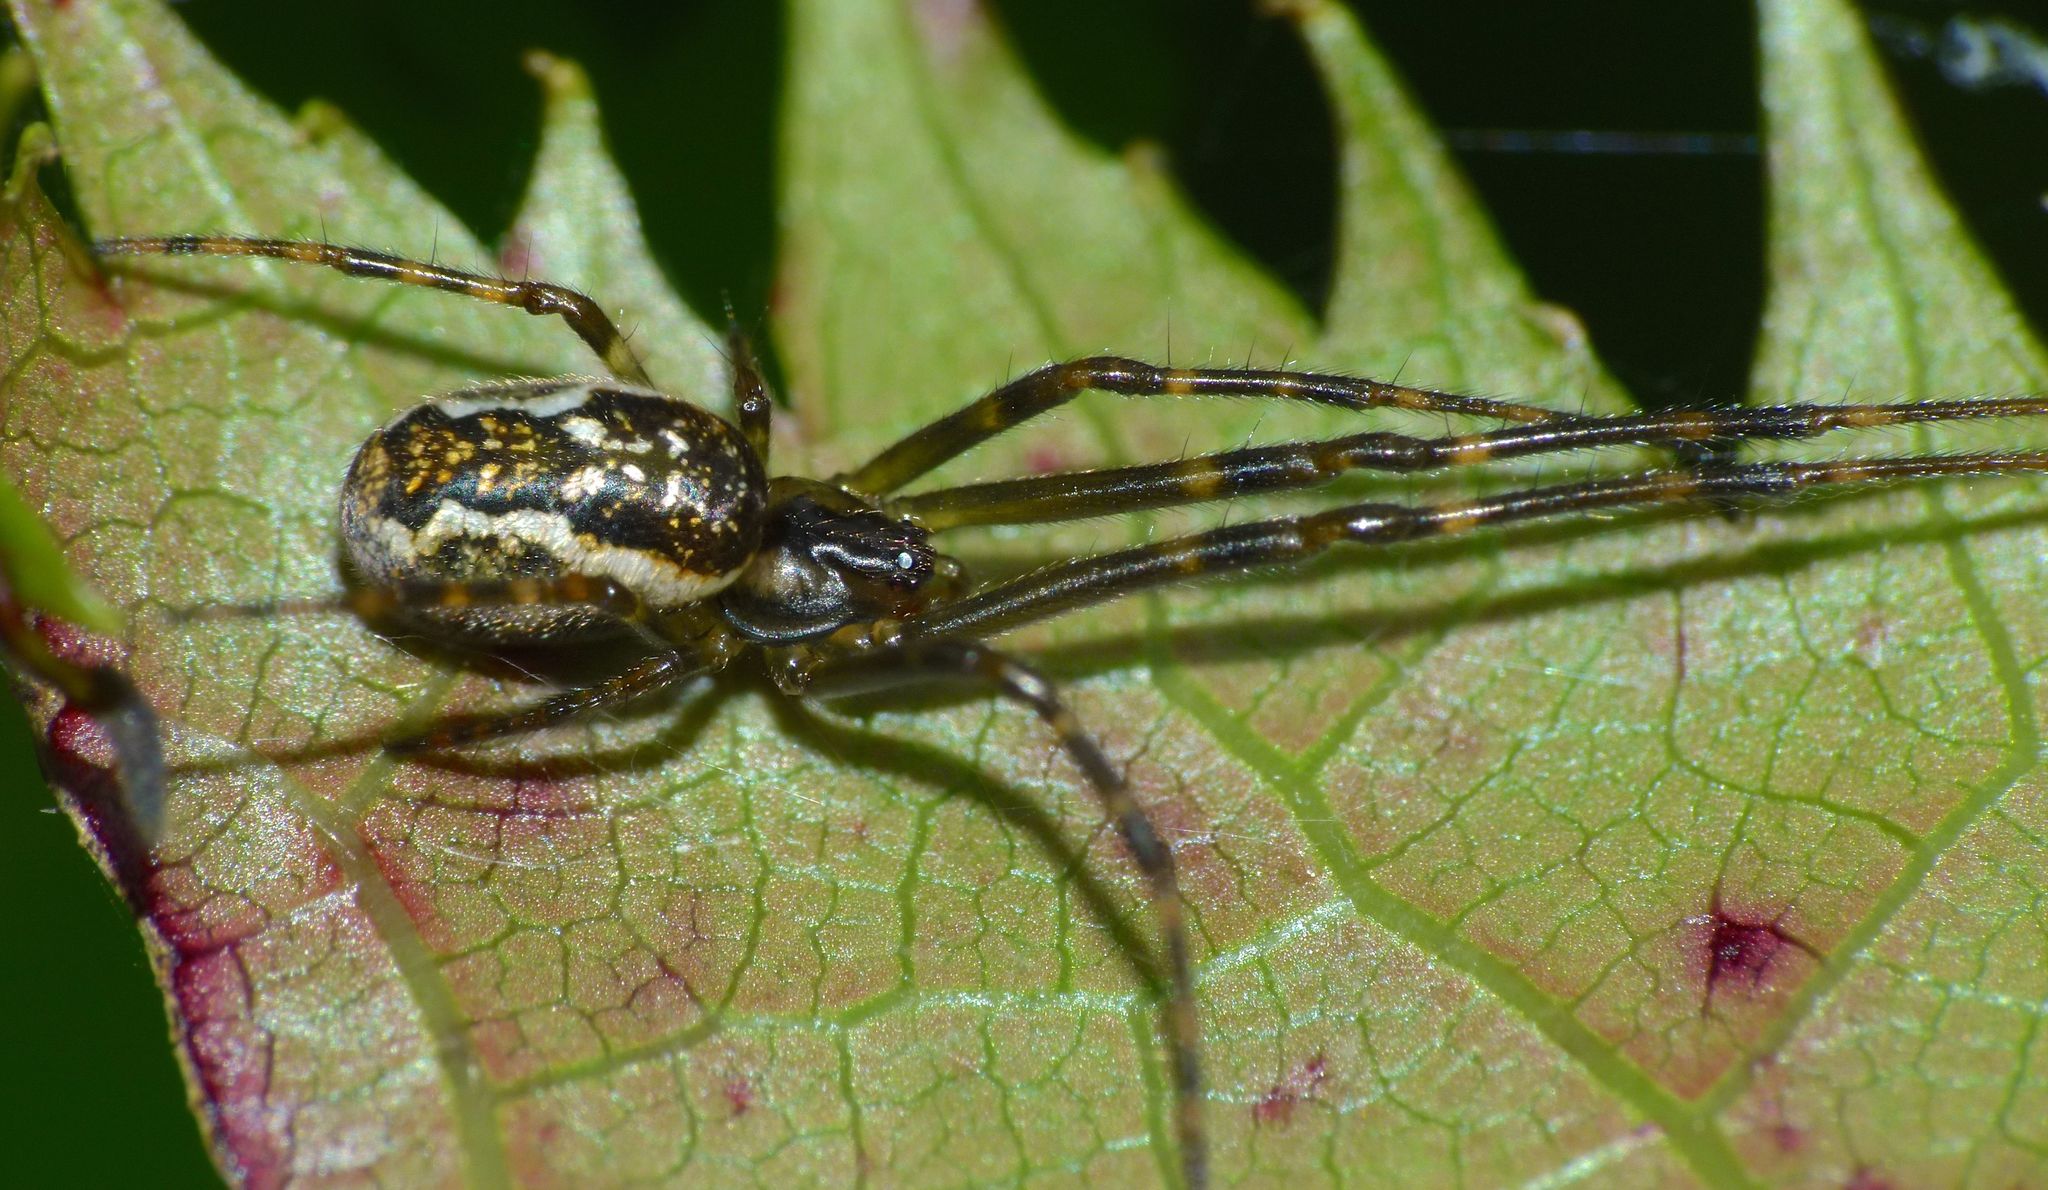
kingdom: Animalia
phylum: Arthropoda
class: Arachnida
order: Araneae
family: Tetragnathidae
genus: Nanometa
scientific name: Nanometa lagenifera
